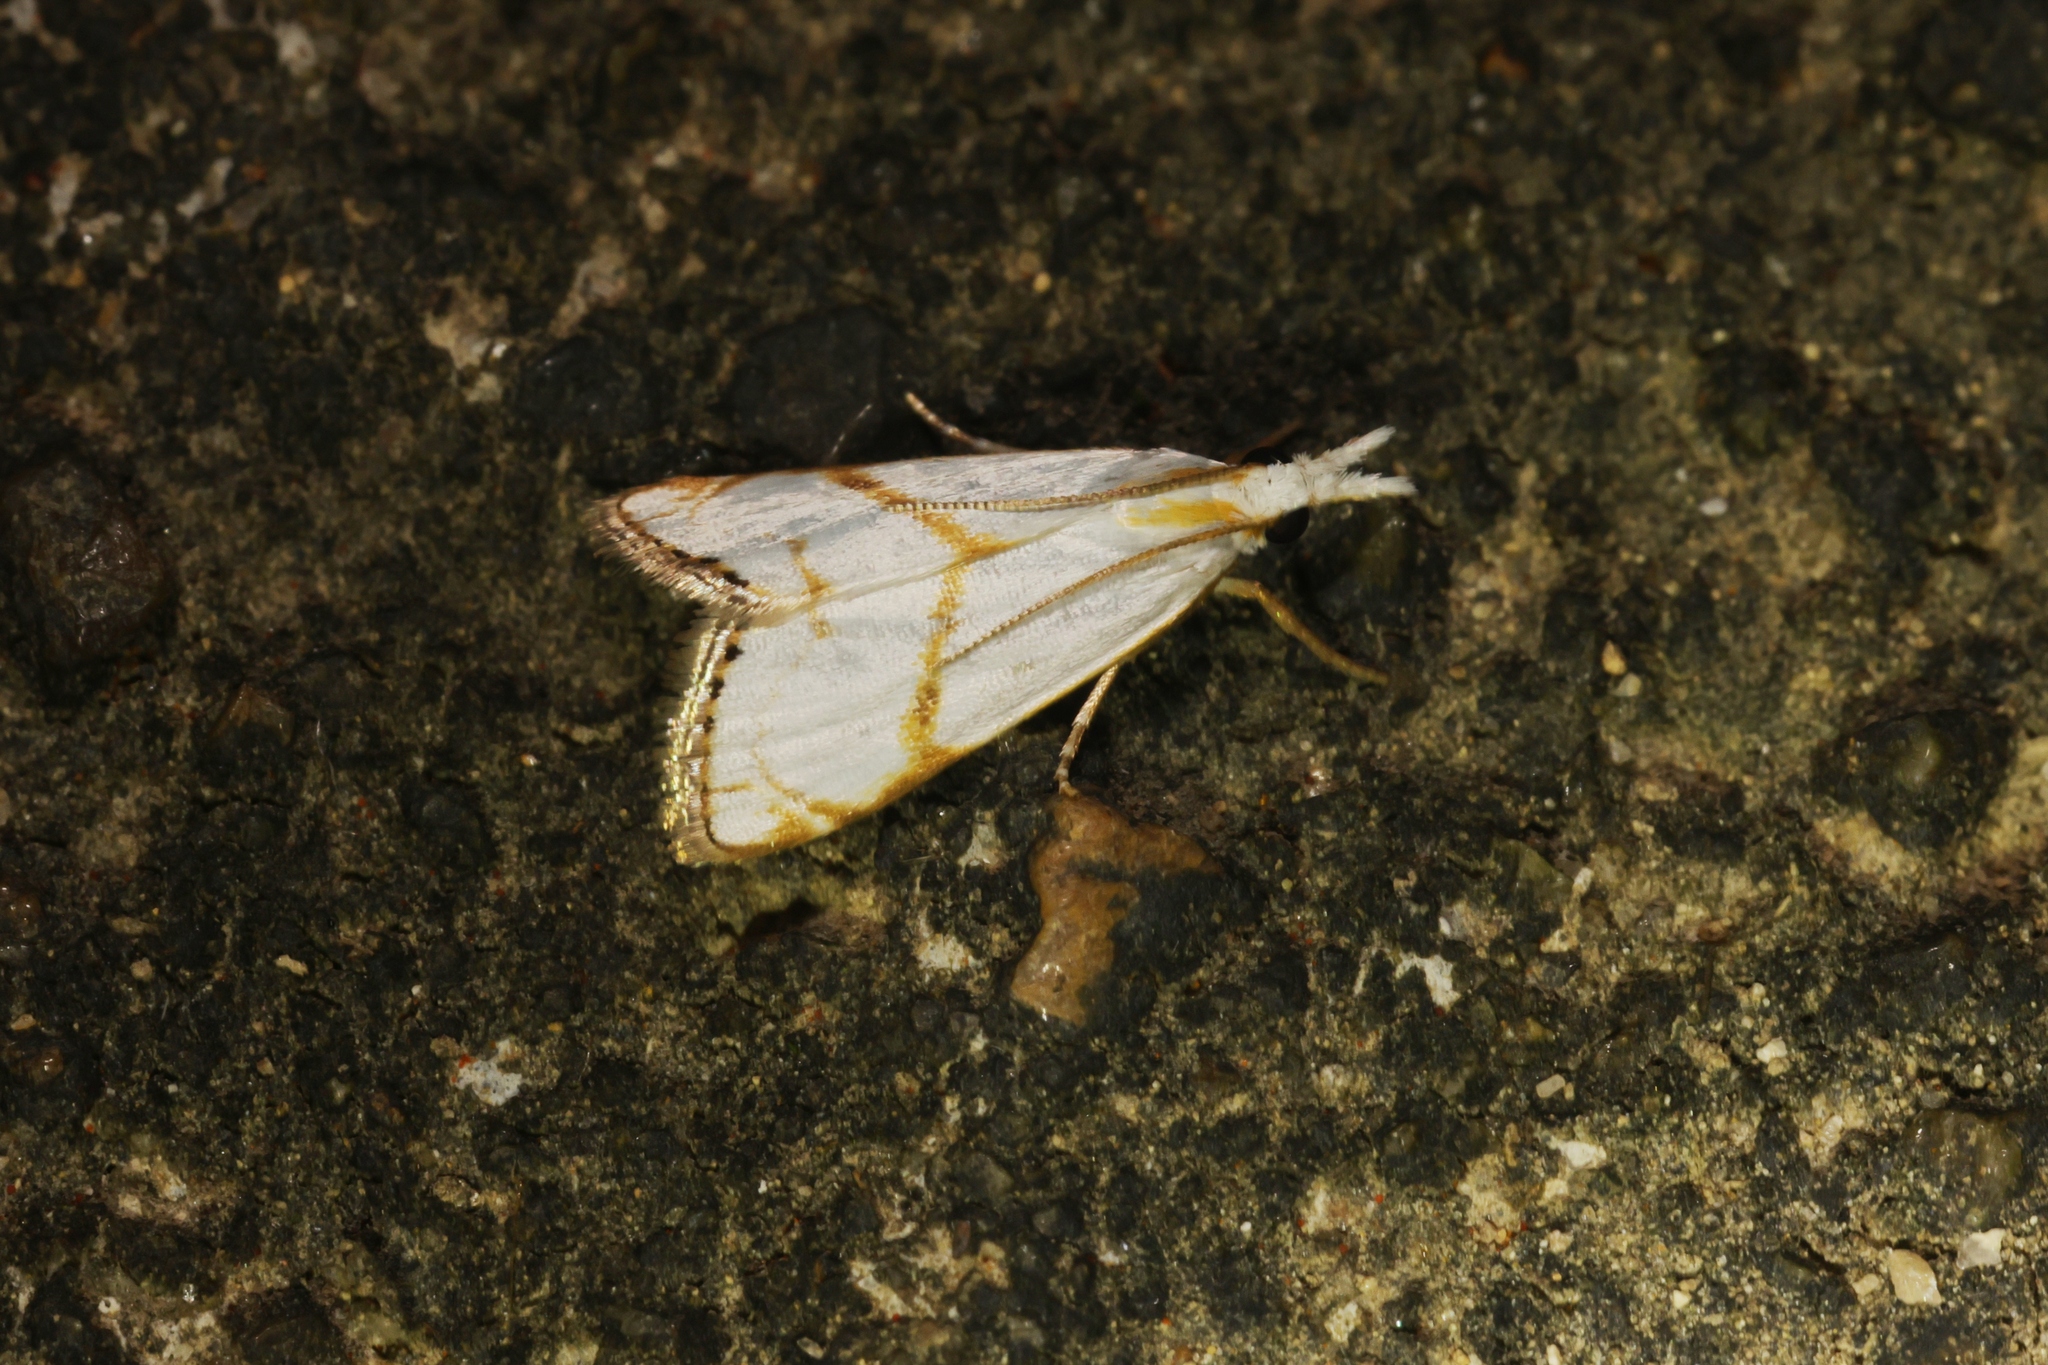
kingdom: Animalia
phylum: Arthropoda
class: Insecta
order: Lepidoptera
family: Crambidae
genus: Pseudargyria
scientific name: Pseudargyria interruptella
